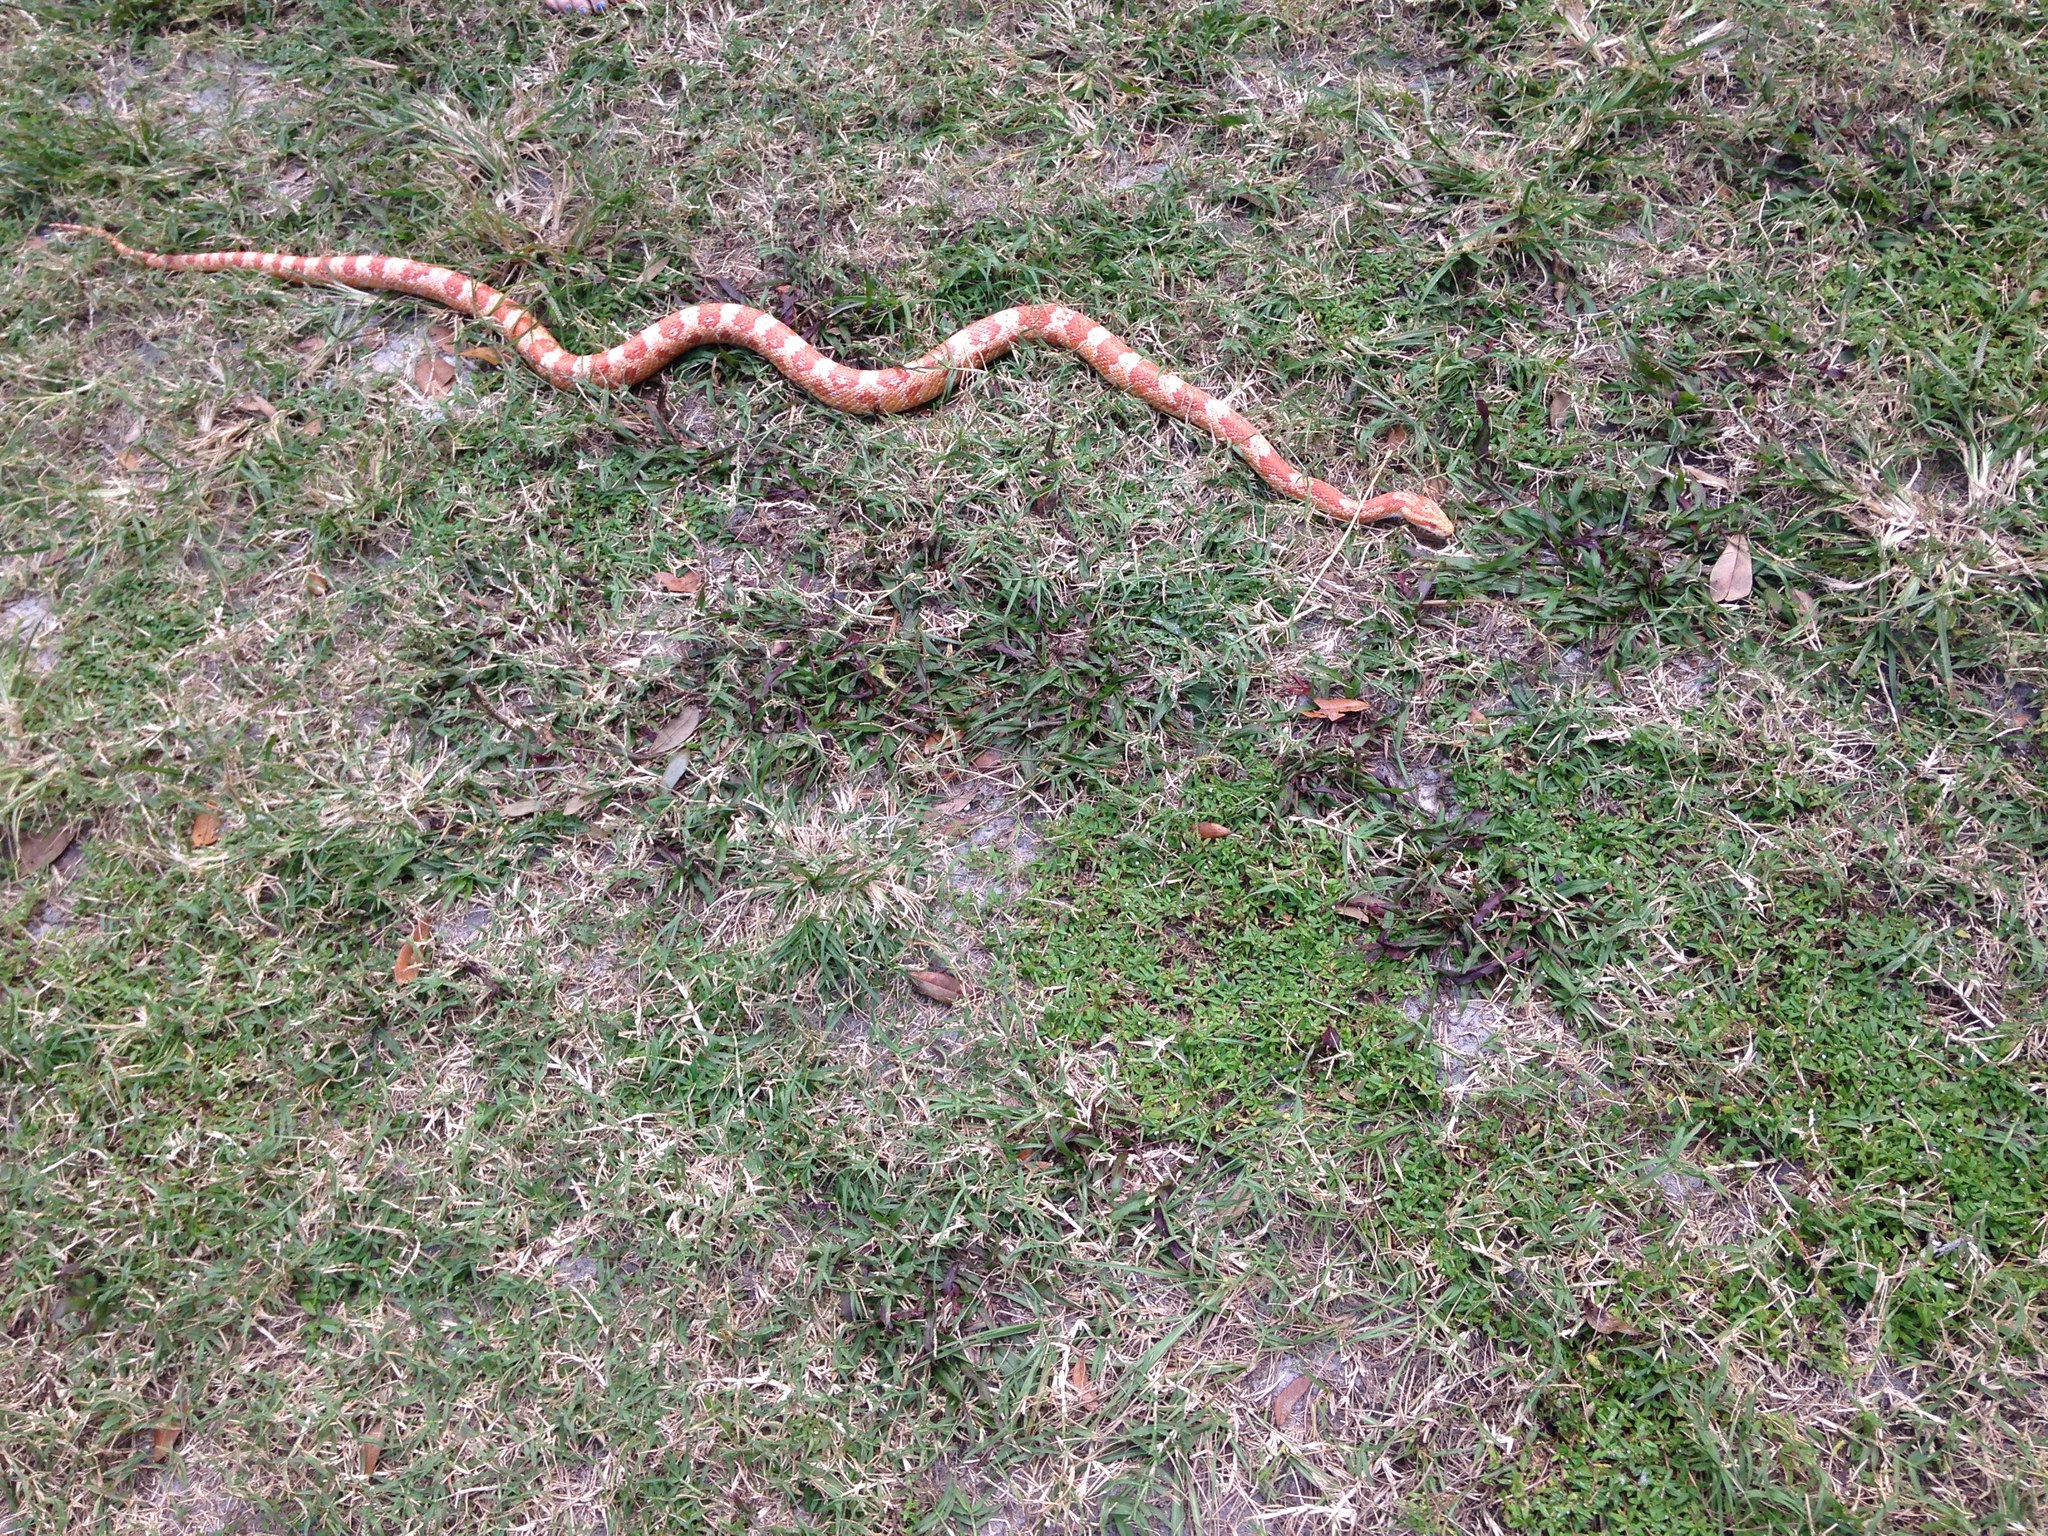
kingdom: Animalia
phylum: Chordata
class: Squamata
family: Colubridae
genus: Pantherophis
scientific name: Pantherophis guttatus
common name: Red cornsnake
